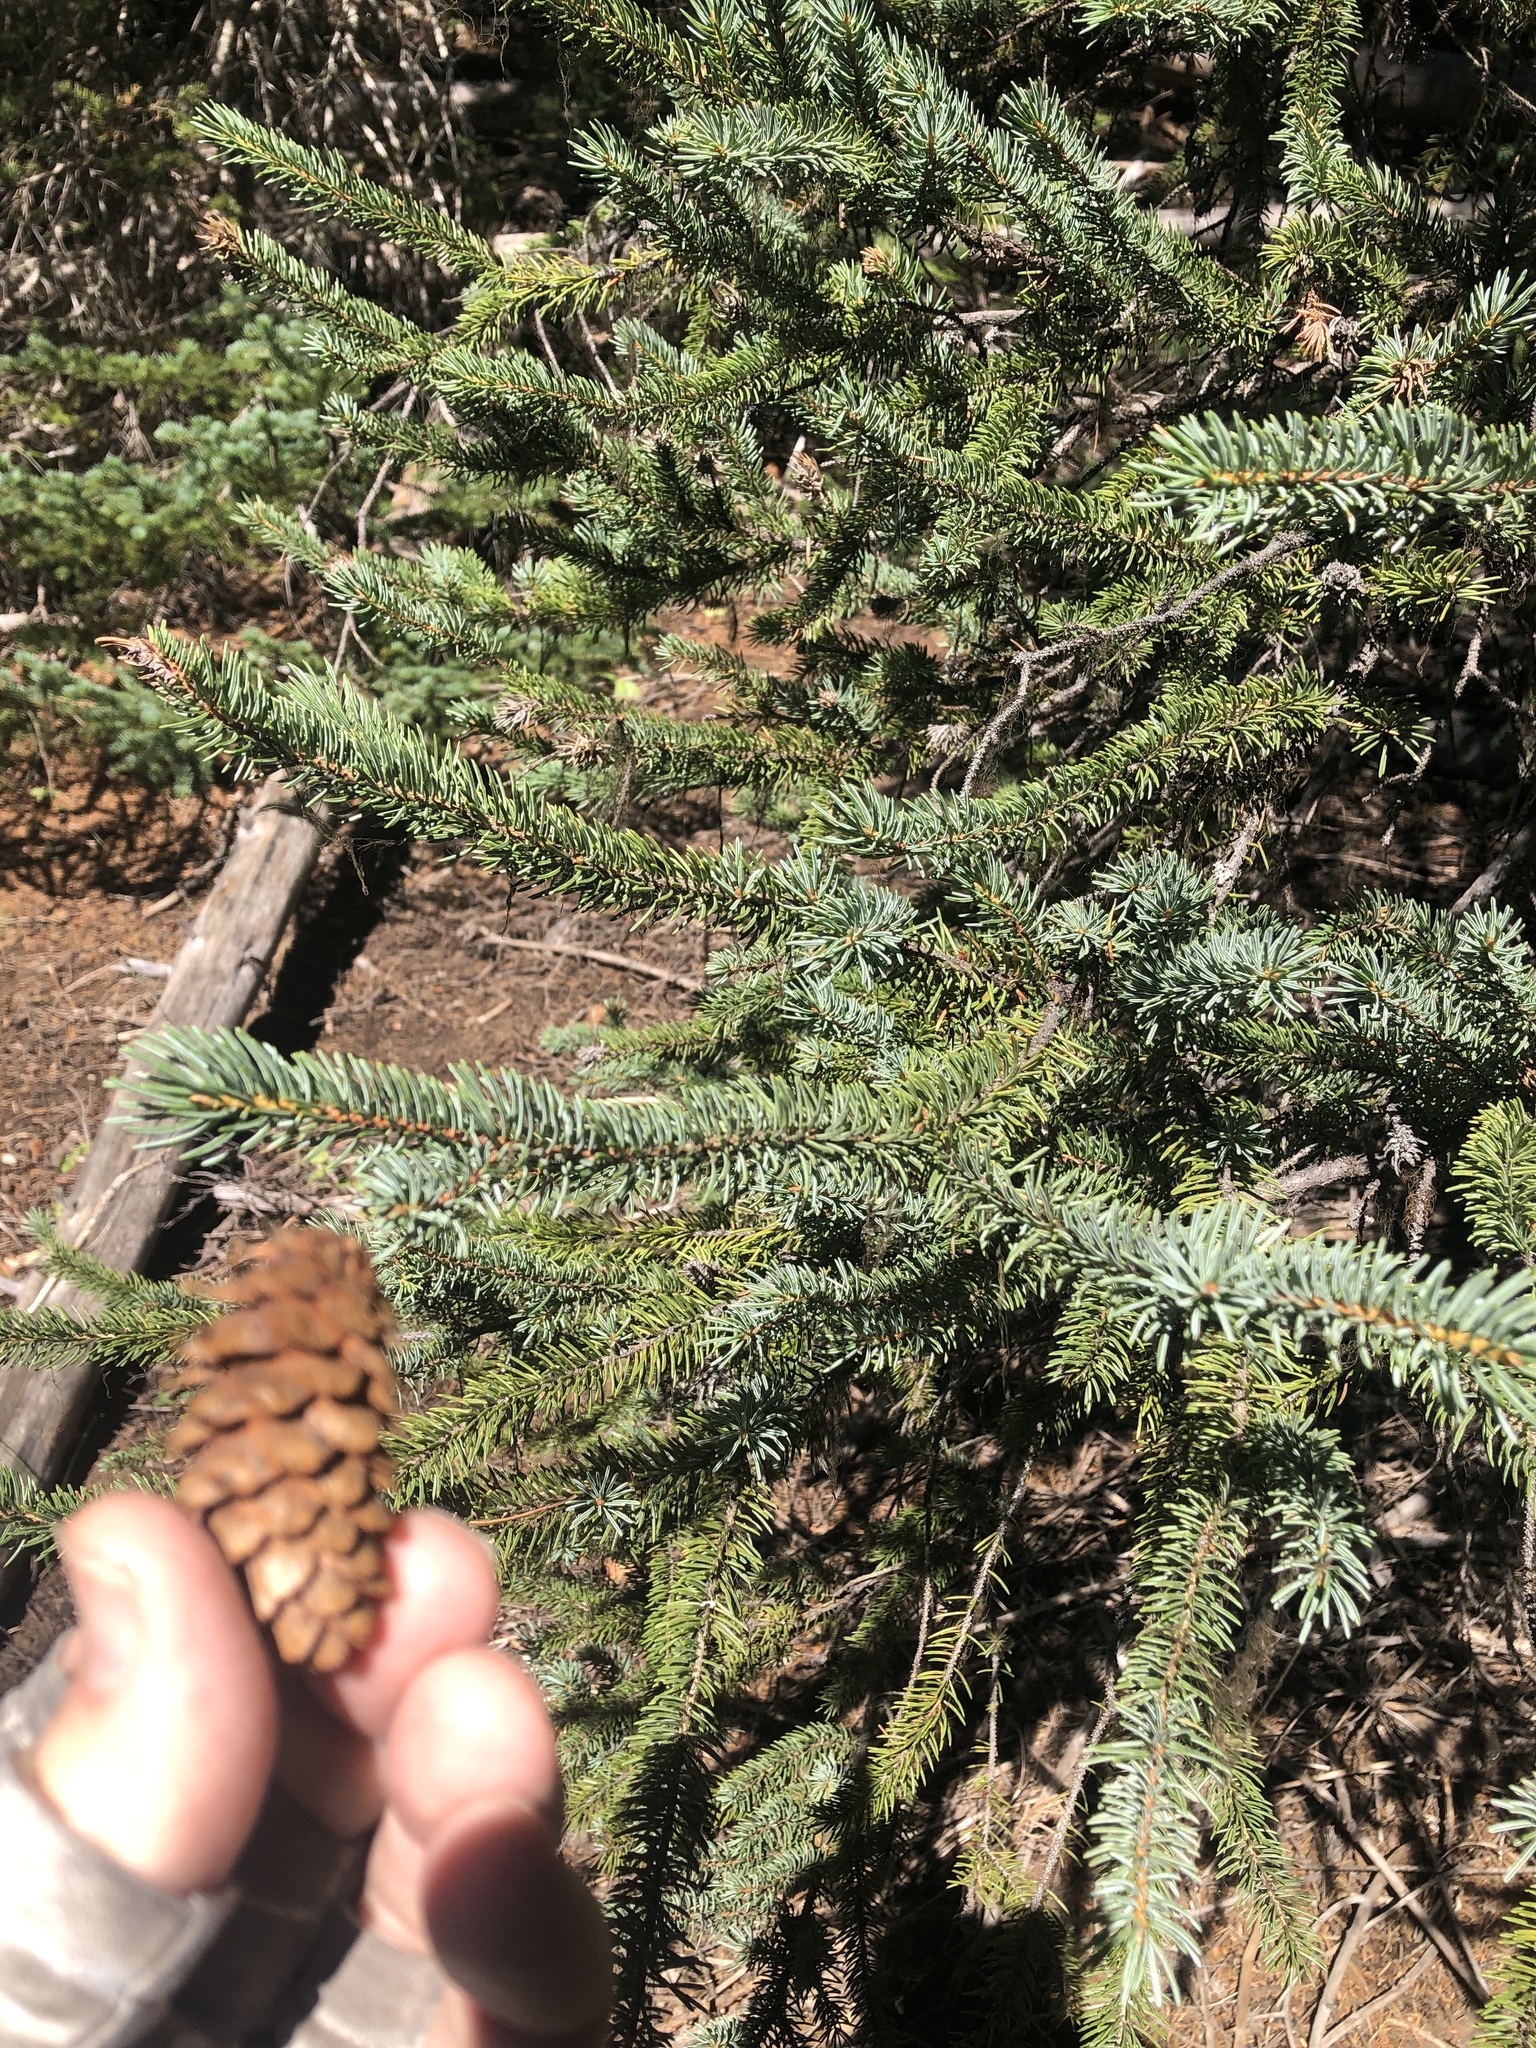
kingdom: Plantae
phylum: Tracheophyta
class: Pinopsida
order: Pinales
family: Pinaceae
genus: Picea
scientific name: Picea engelmannii
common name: Engelmann spruce
